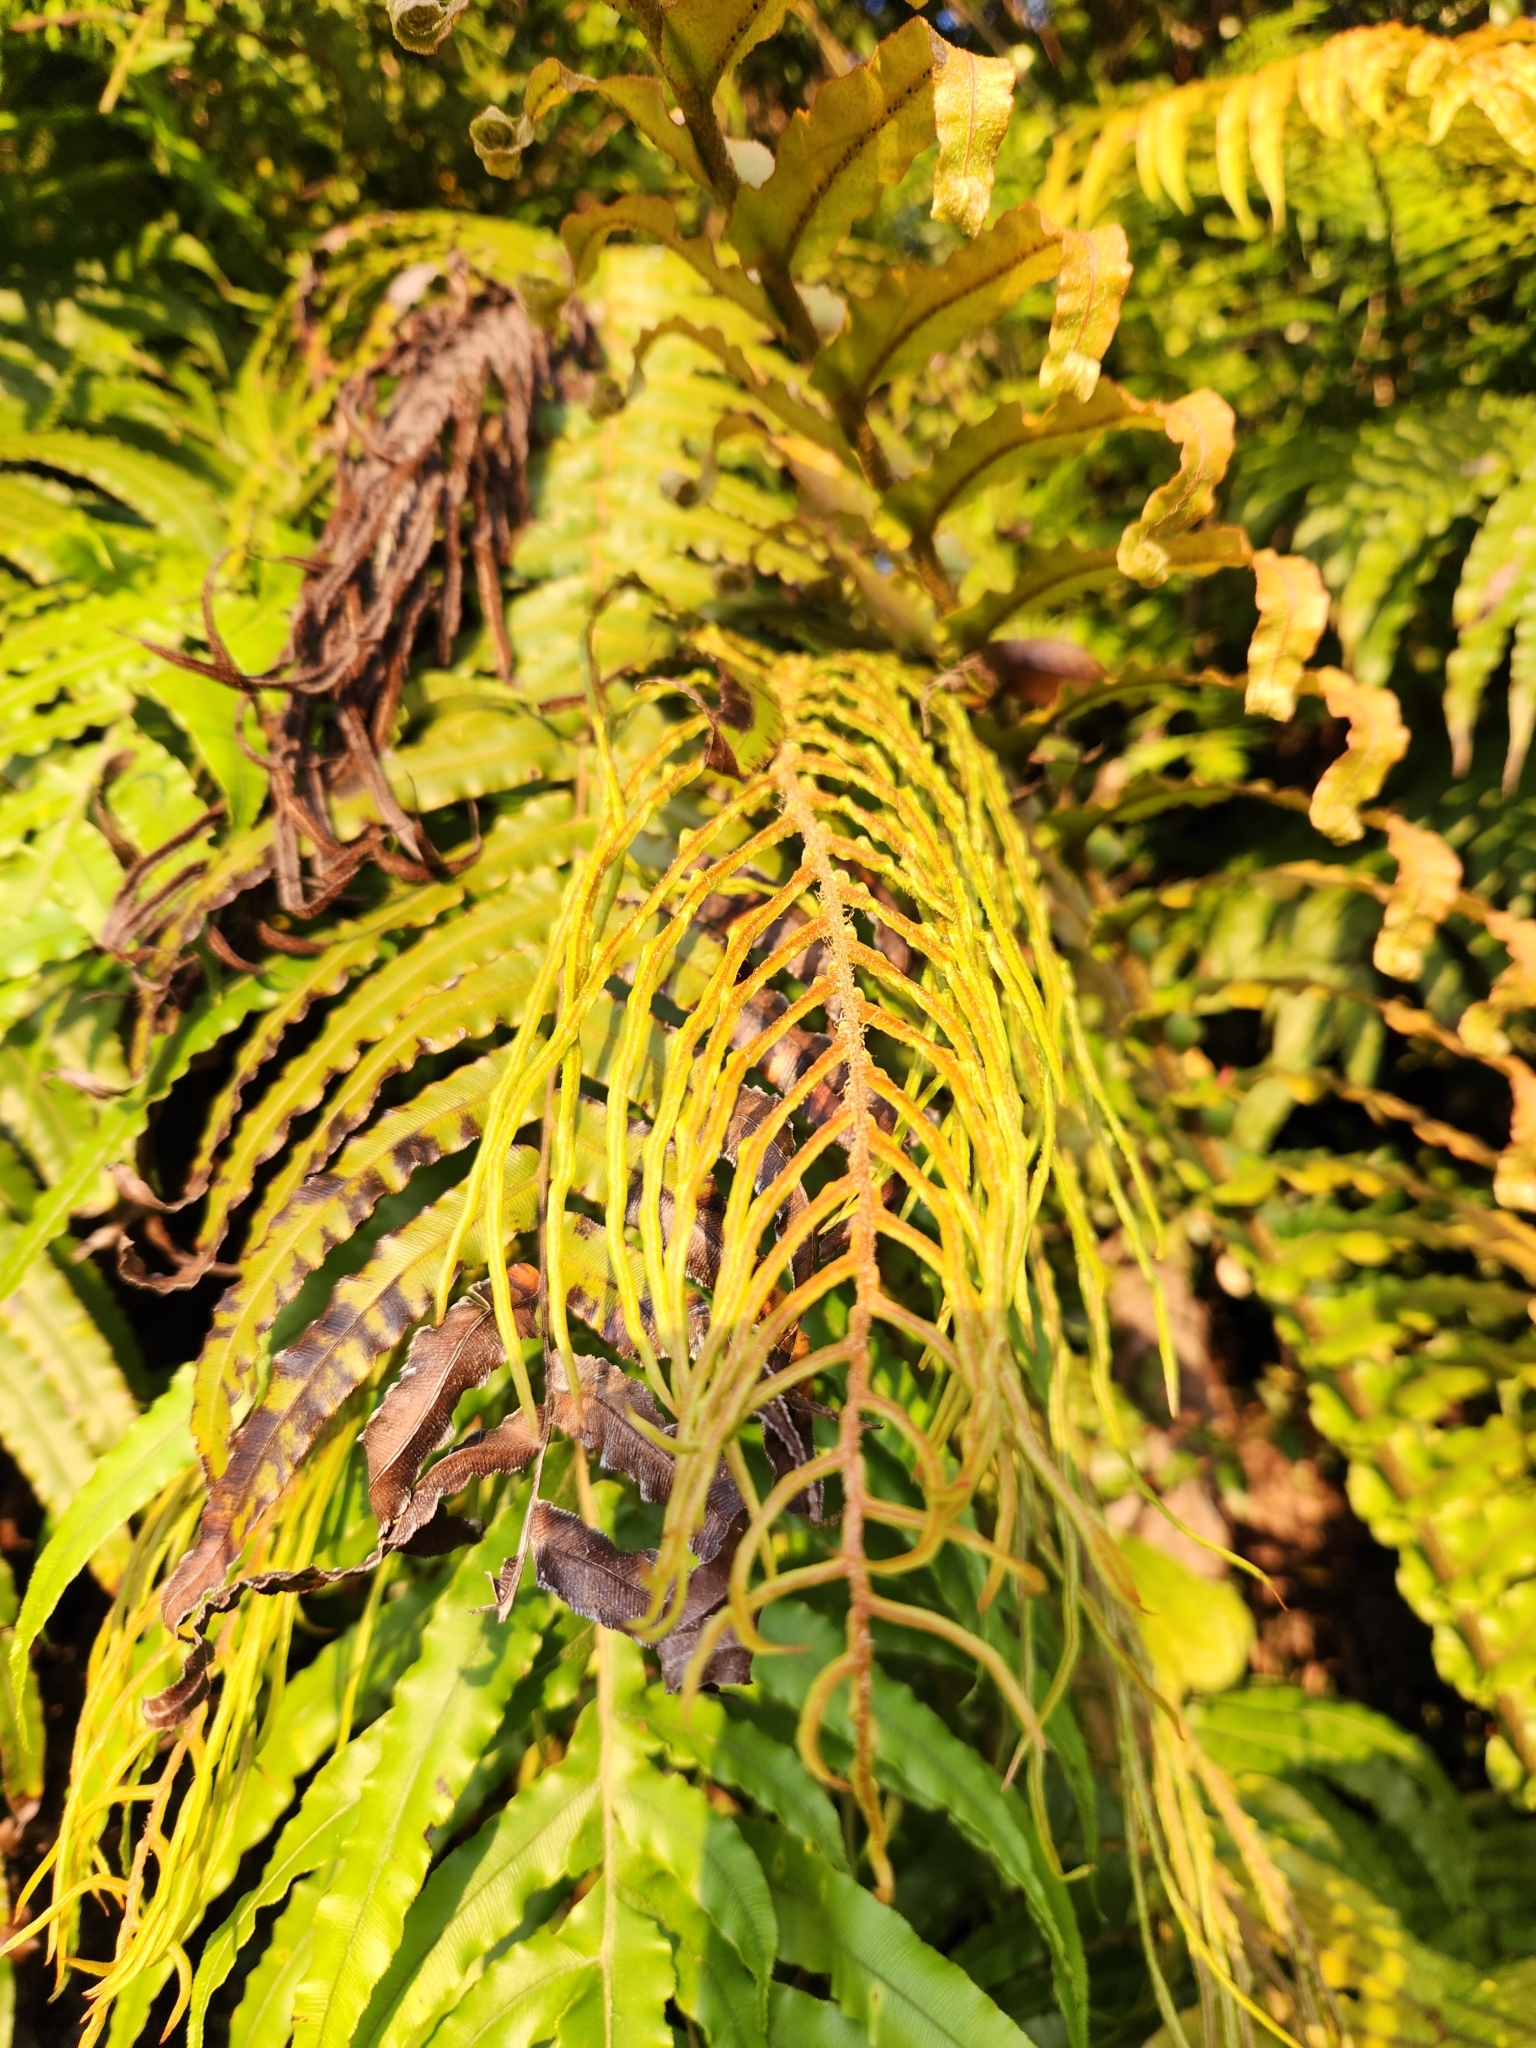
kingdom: Plantae
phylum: Tracheophyta
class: Polypodiopsida
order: Polypodiales
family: Blechnaceae
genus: Parablechnum
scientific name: Parablechnum novae-zelandiae
